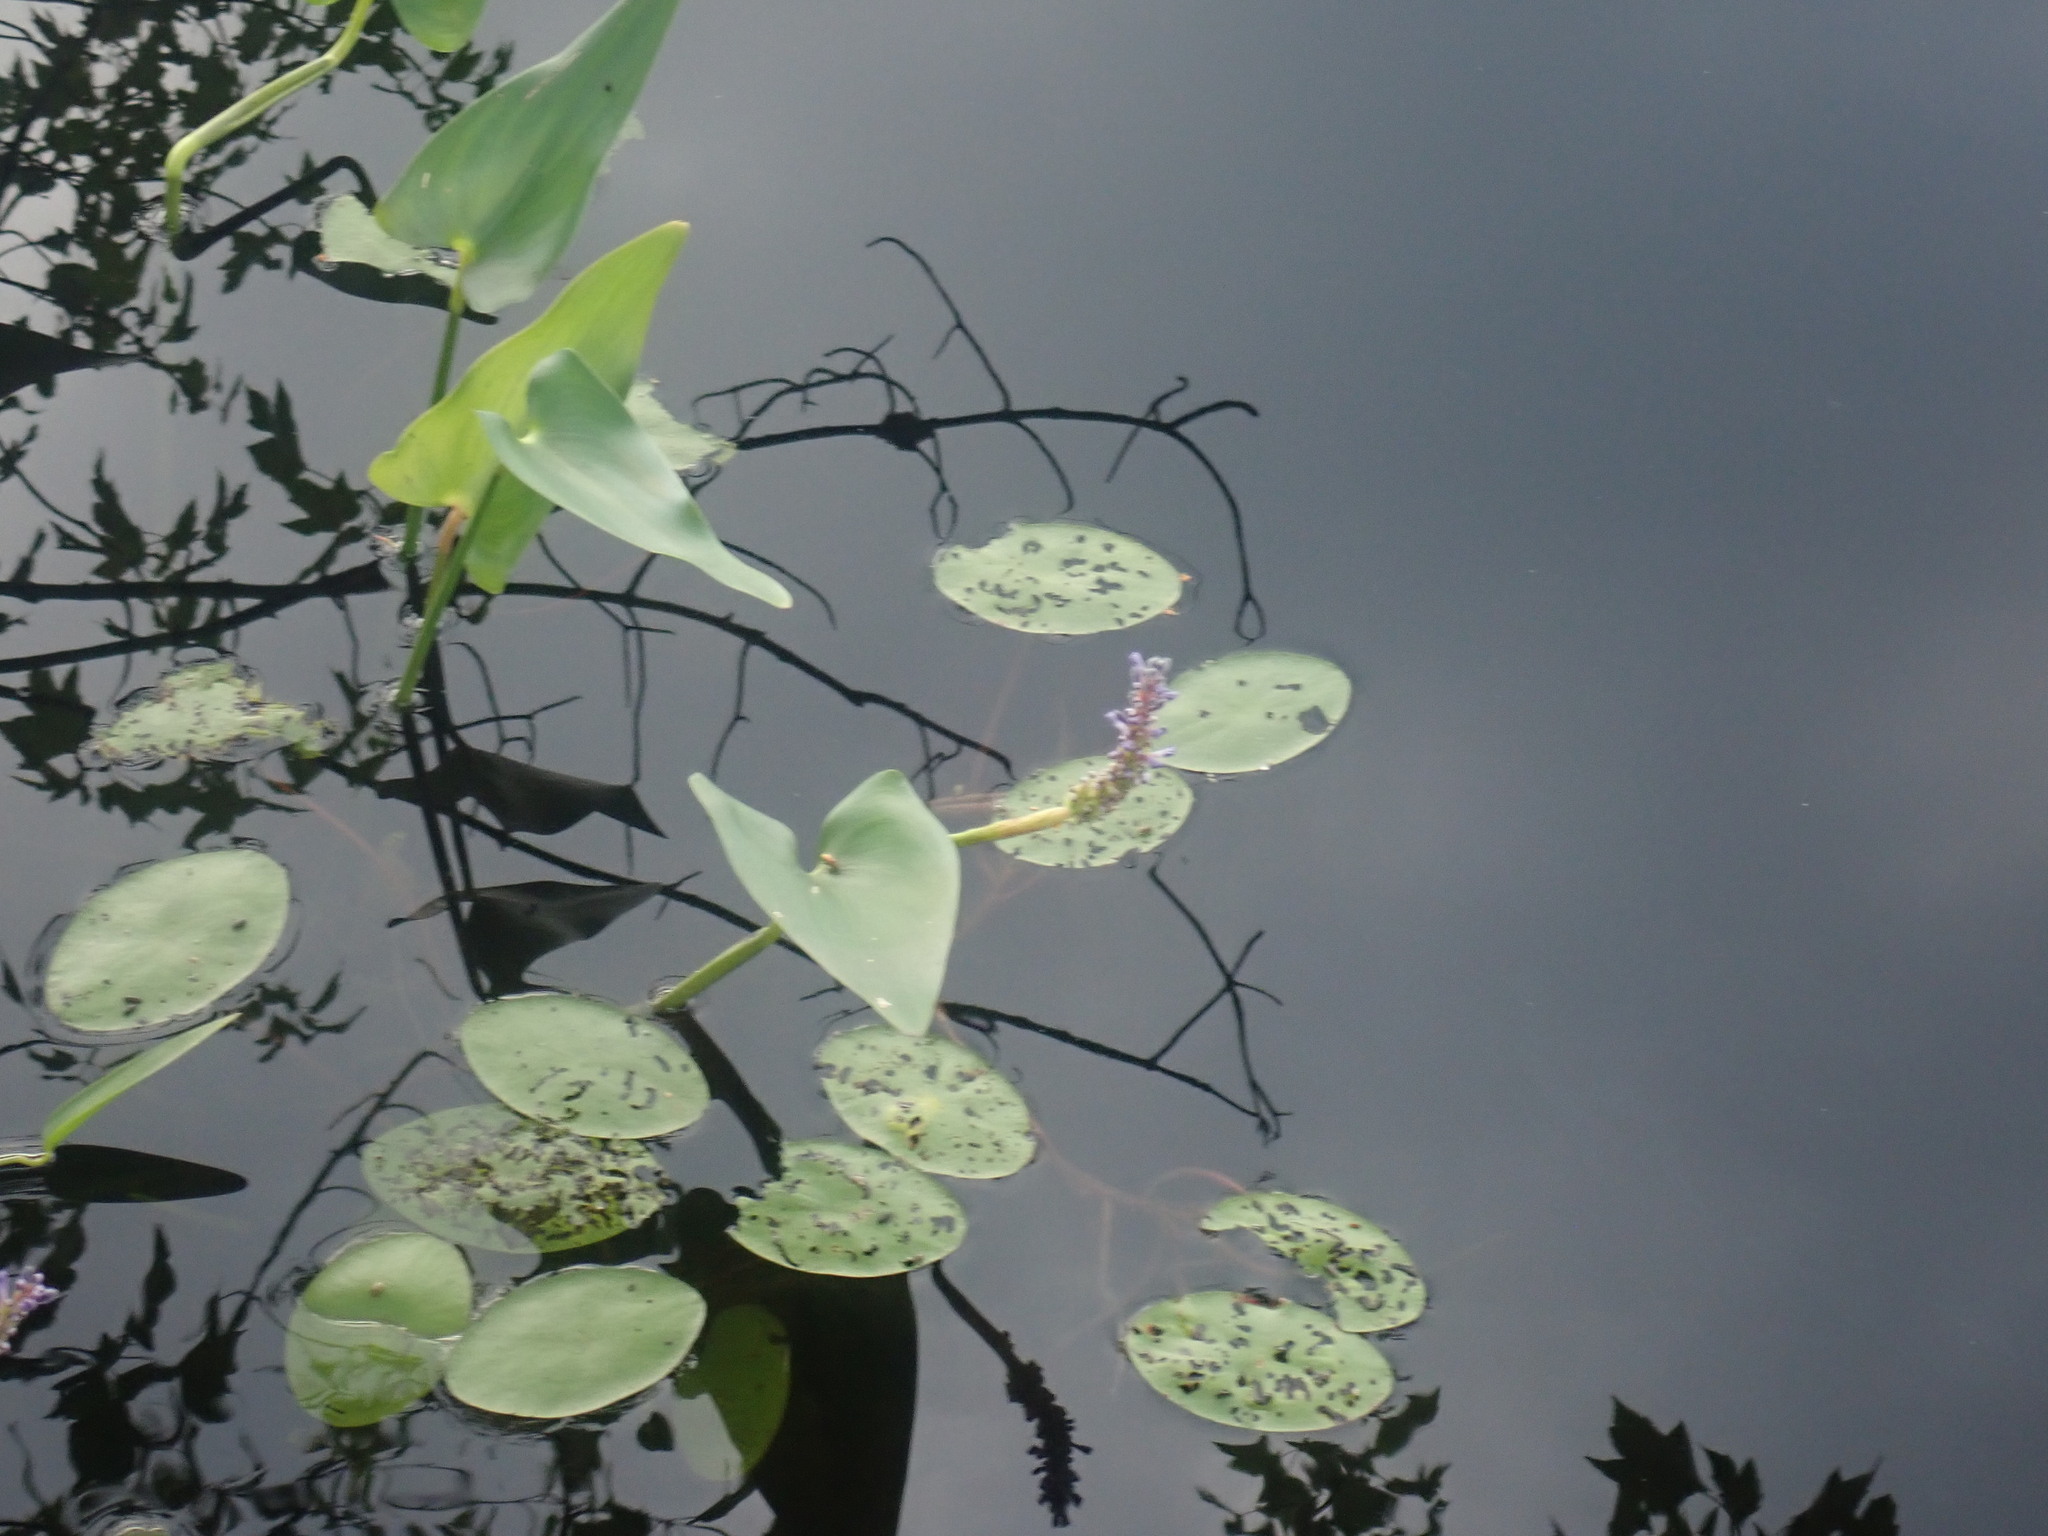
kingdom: Plantae
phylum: Tracheophyta
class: Liliopsida
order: Commelinales
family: Pontederiaceae
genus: Pontederia
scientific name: Pontederia cordata
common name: Pickerelweed
